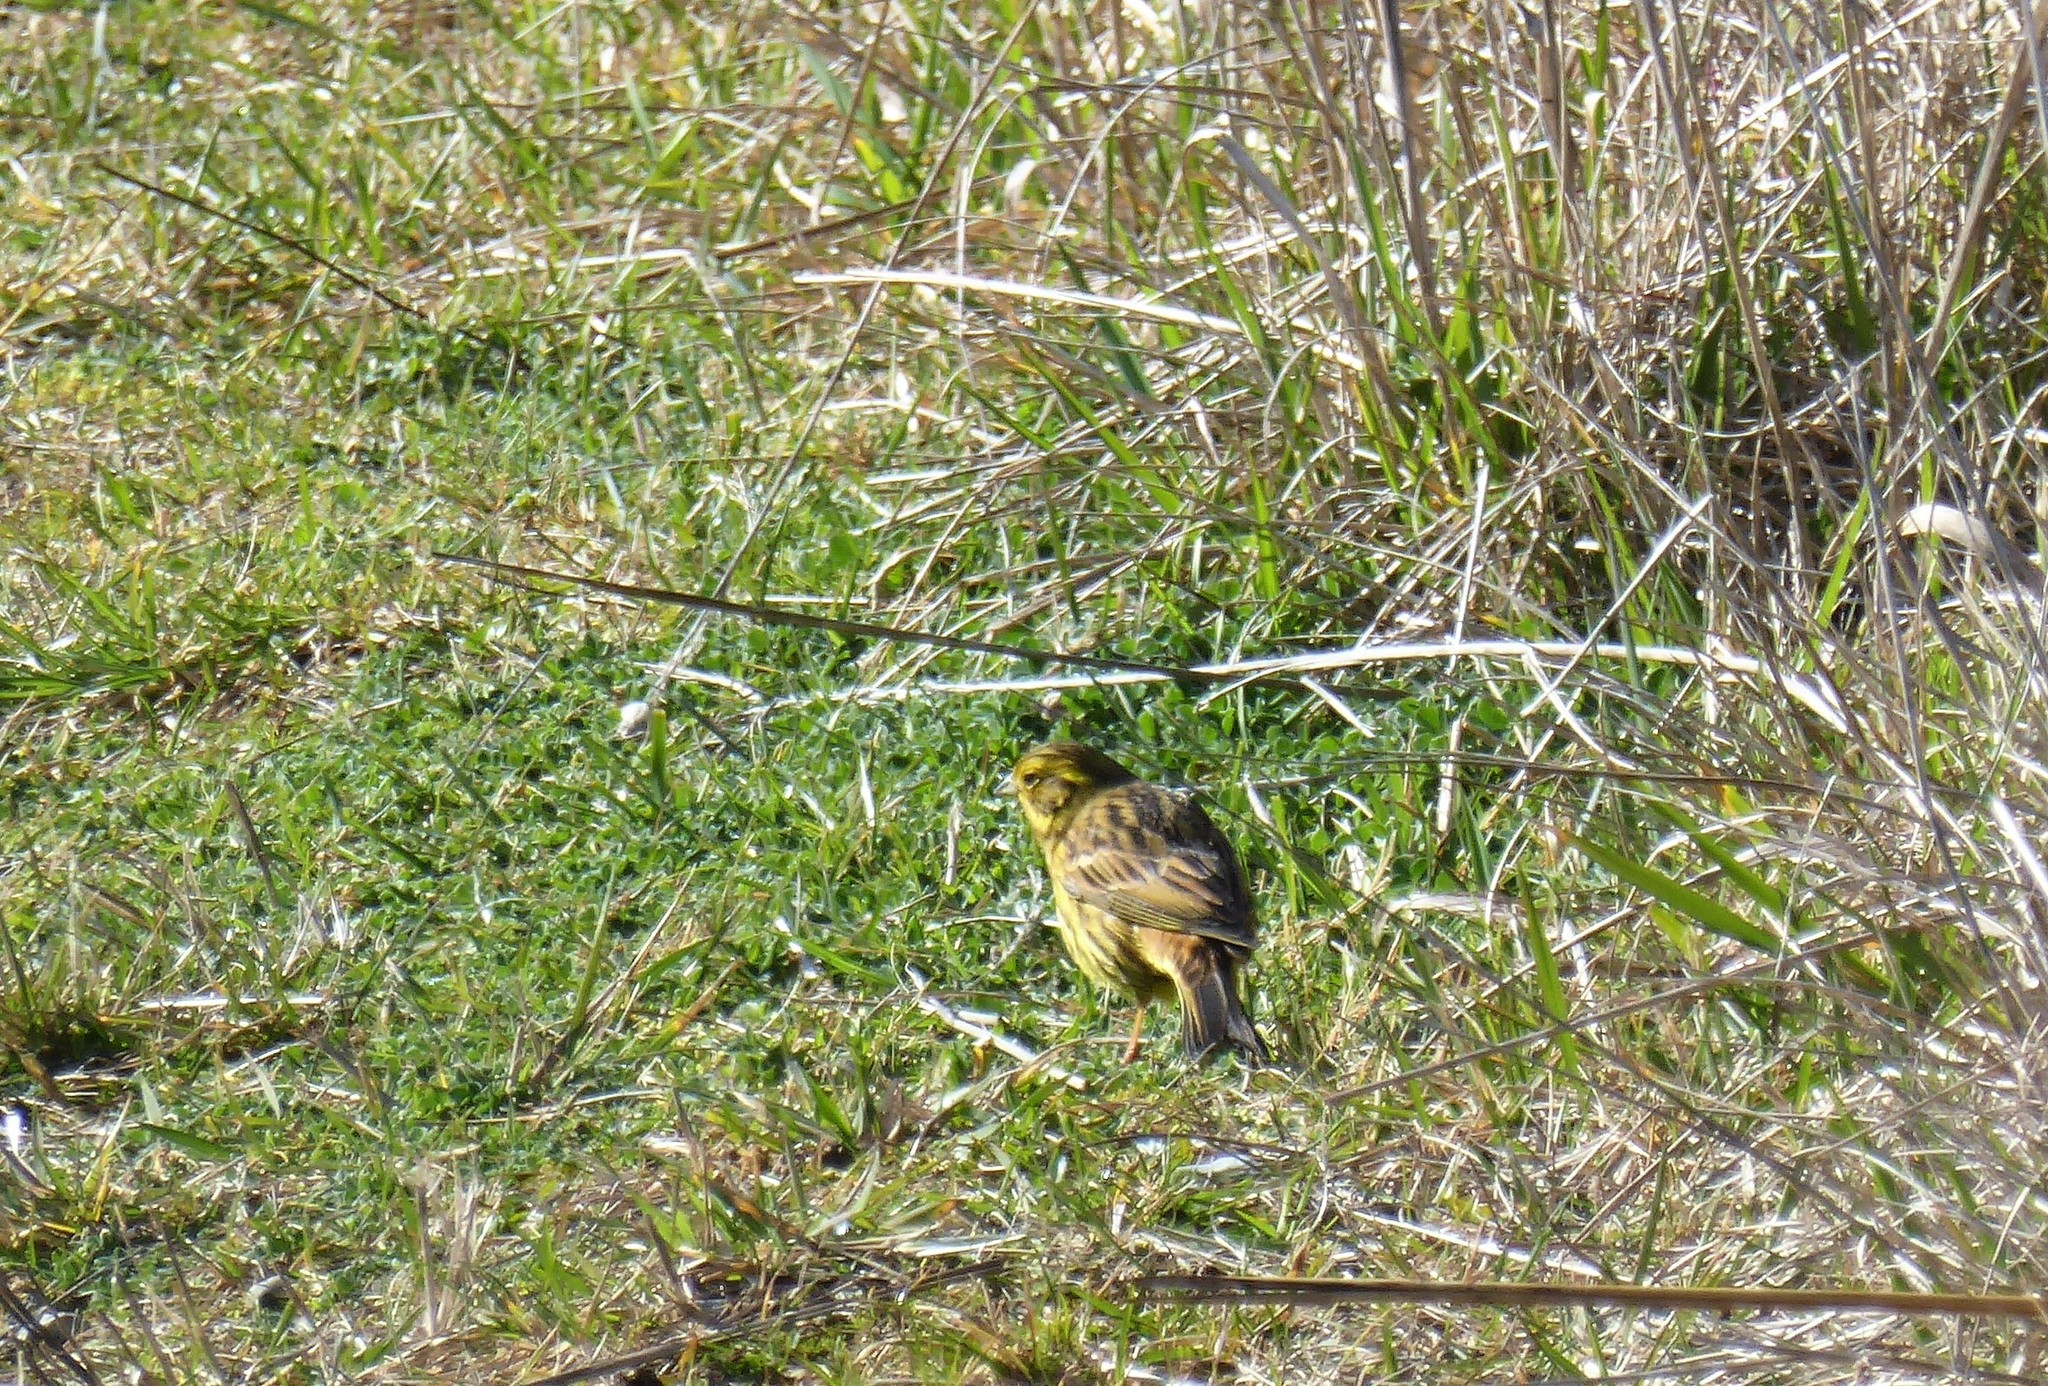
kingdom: Animalia
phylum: Chordata
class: Aves
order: Passeriformes
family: Emberizidae
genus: Emberiza
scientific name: Emberiza citrinella
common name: Yellowhammer
